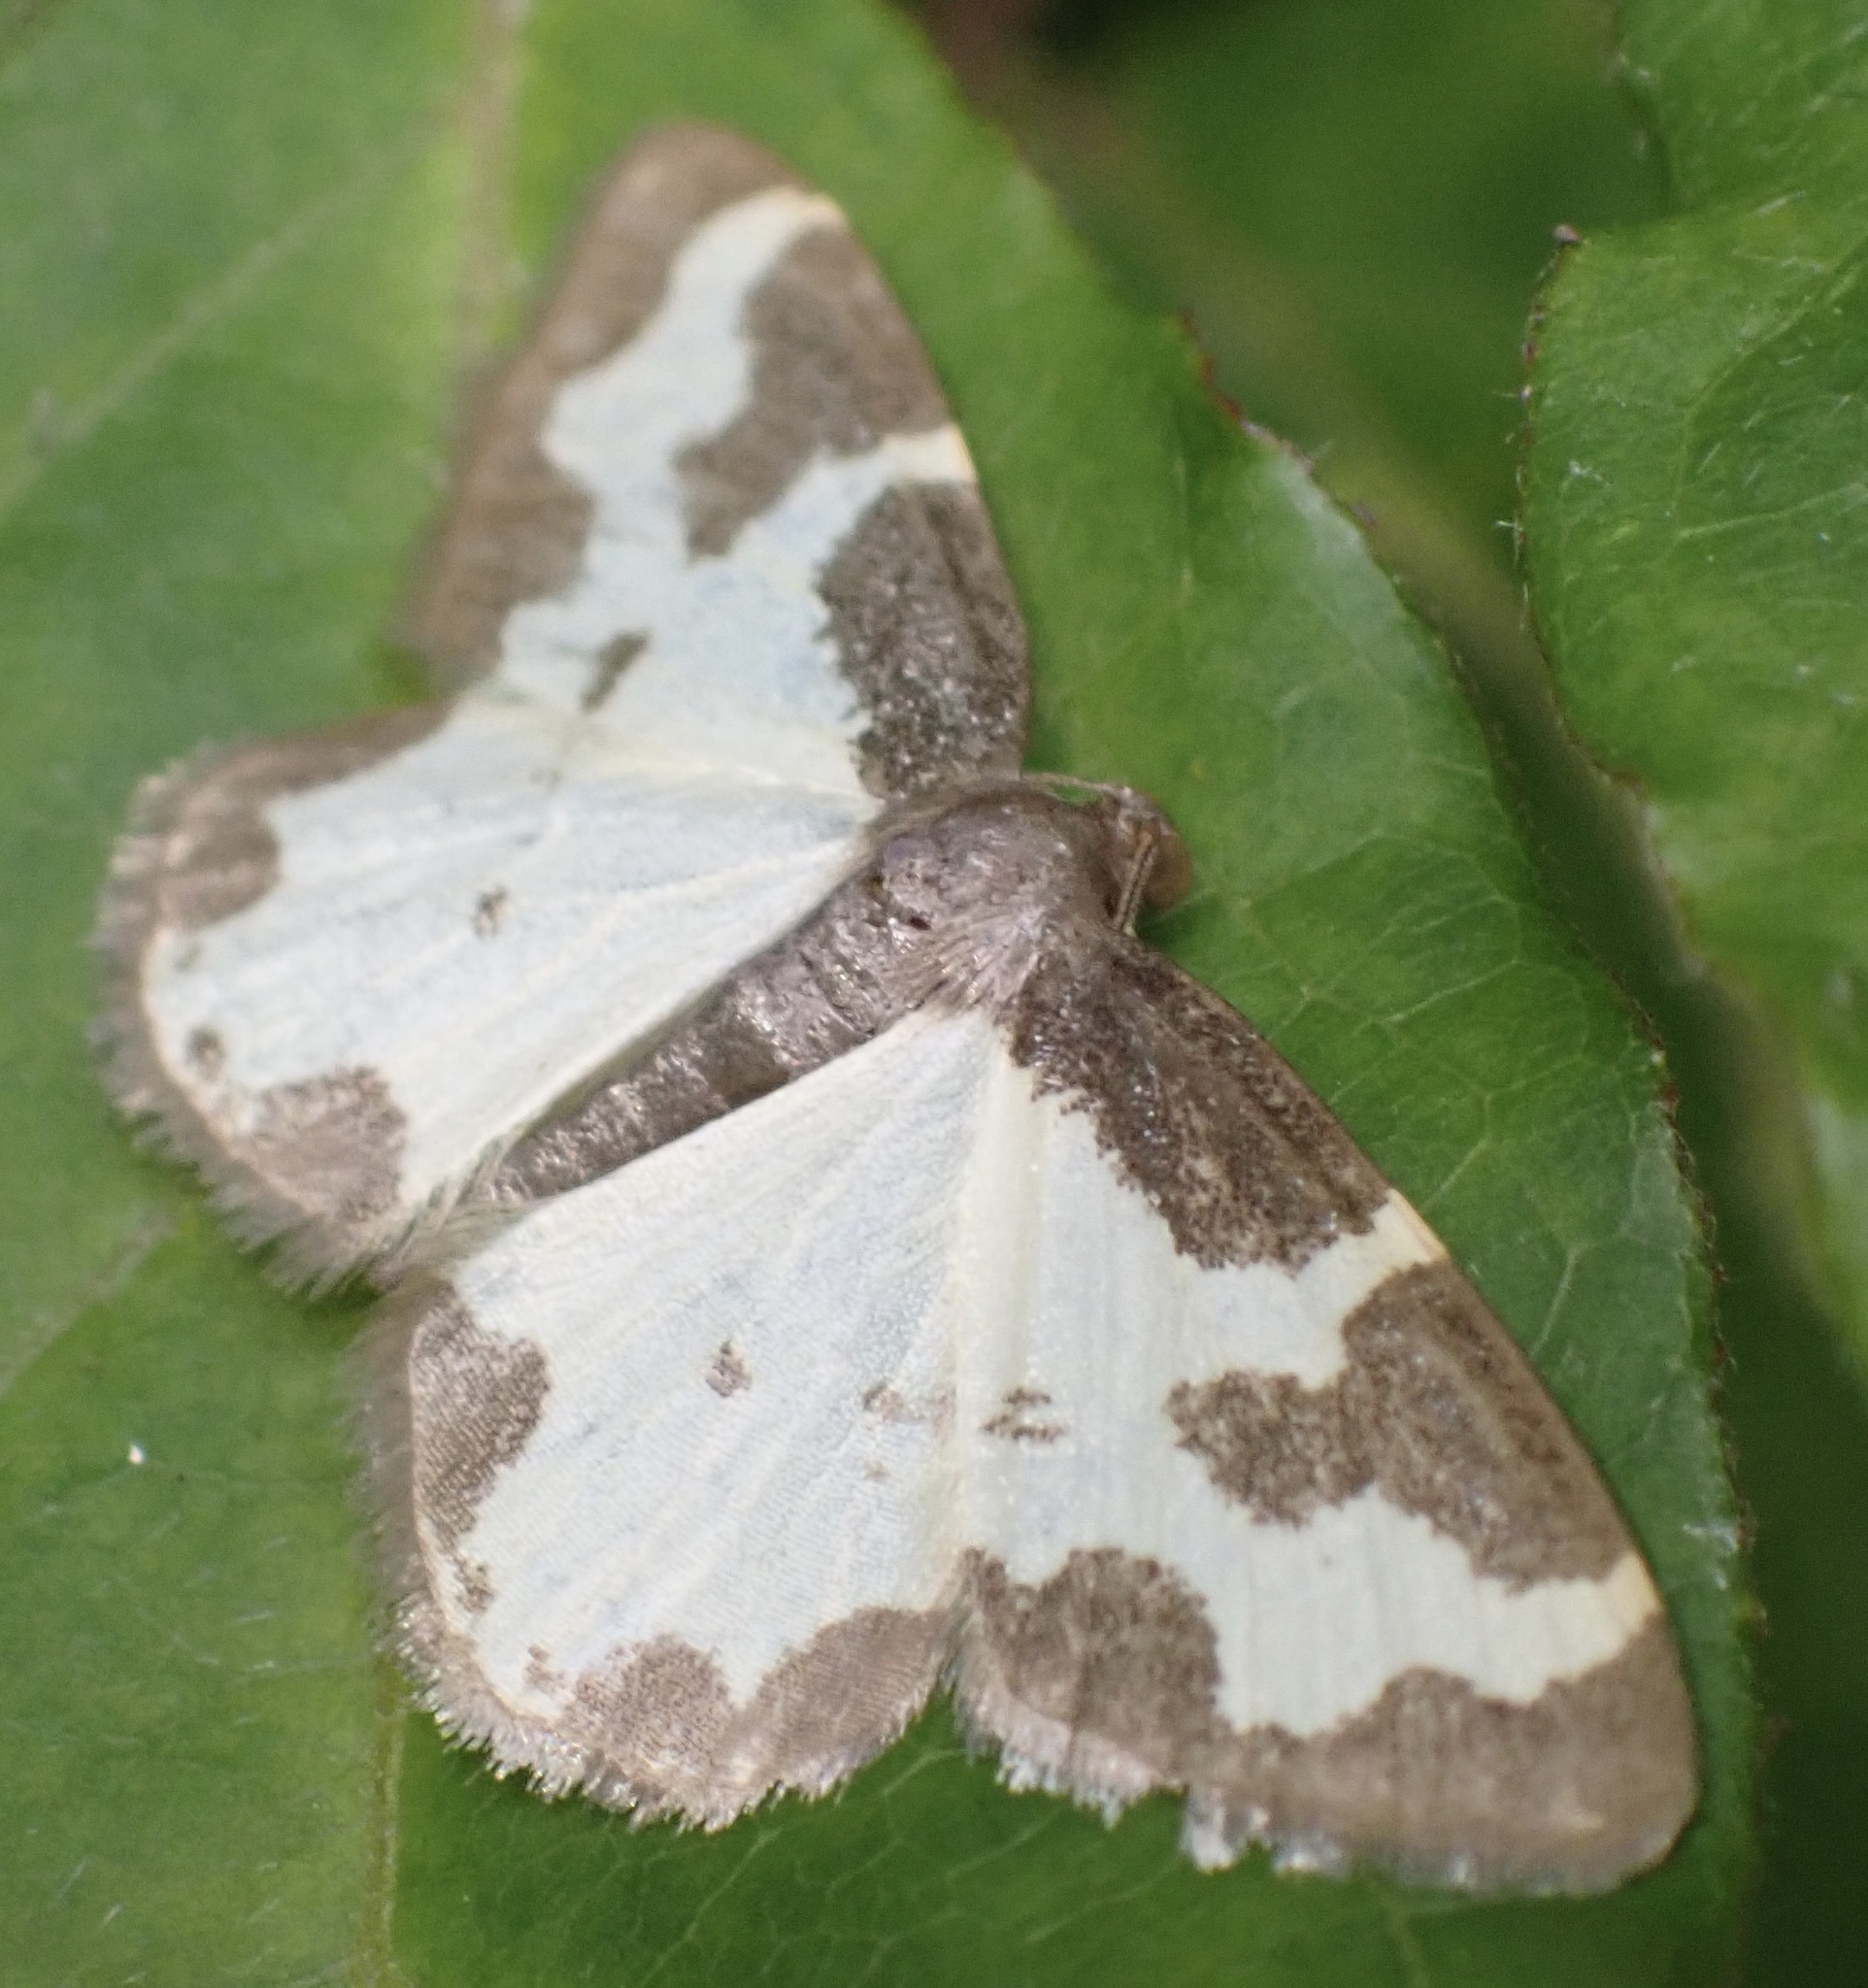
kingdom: Animalia
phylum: Arthropoda
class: Insecta
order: Lepidoptera
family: Geometridae
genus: Lomaspilis
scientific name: Lomaspilis marginata
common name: Clouded border
